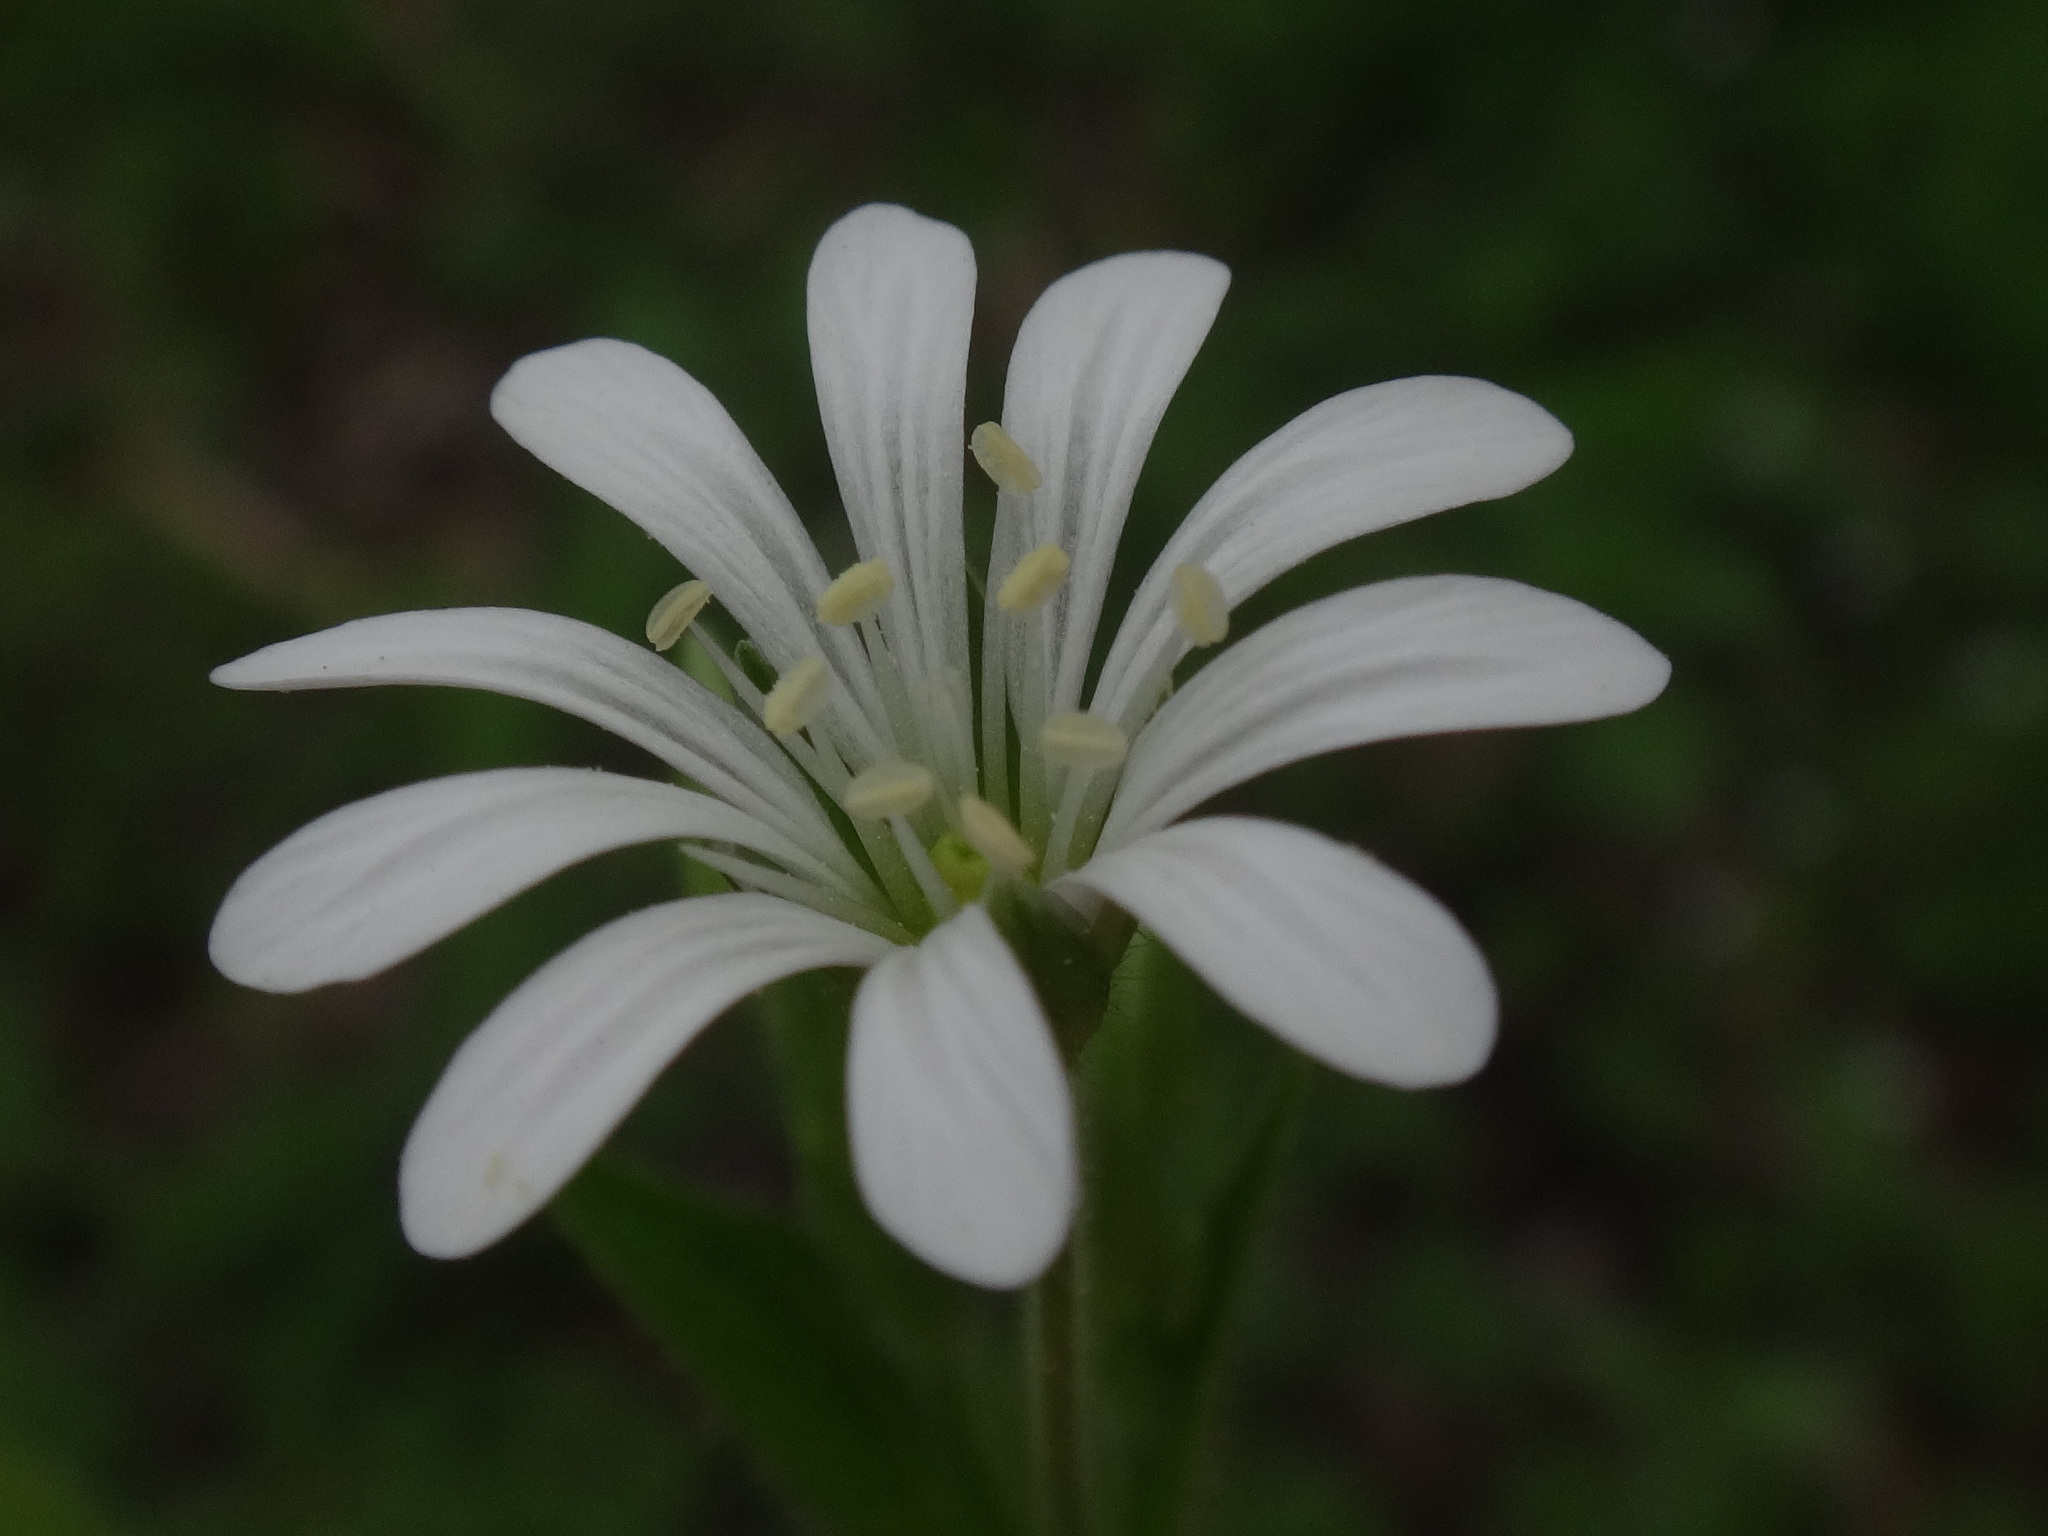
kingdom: Plantae
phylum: Tracheophyta
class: Magnoliopsida
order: Caryophyllales
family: Caryophyllaceae
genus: Stellaria
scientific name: Stellaria nemorum
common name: Wood stitchwort
